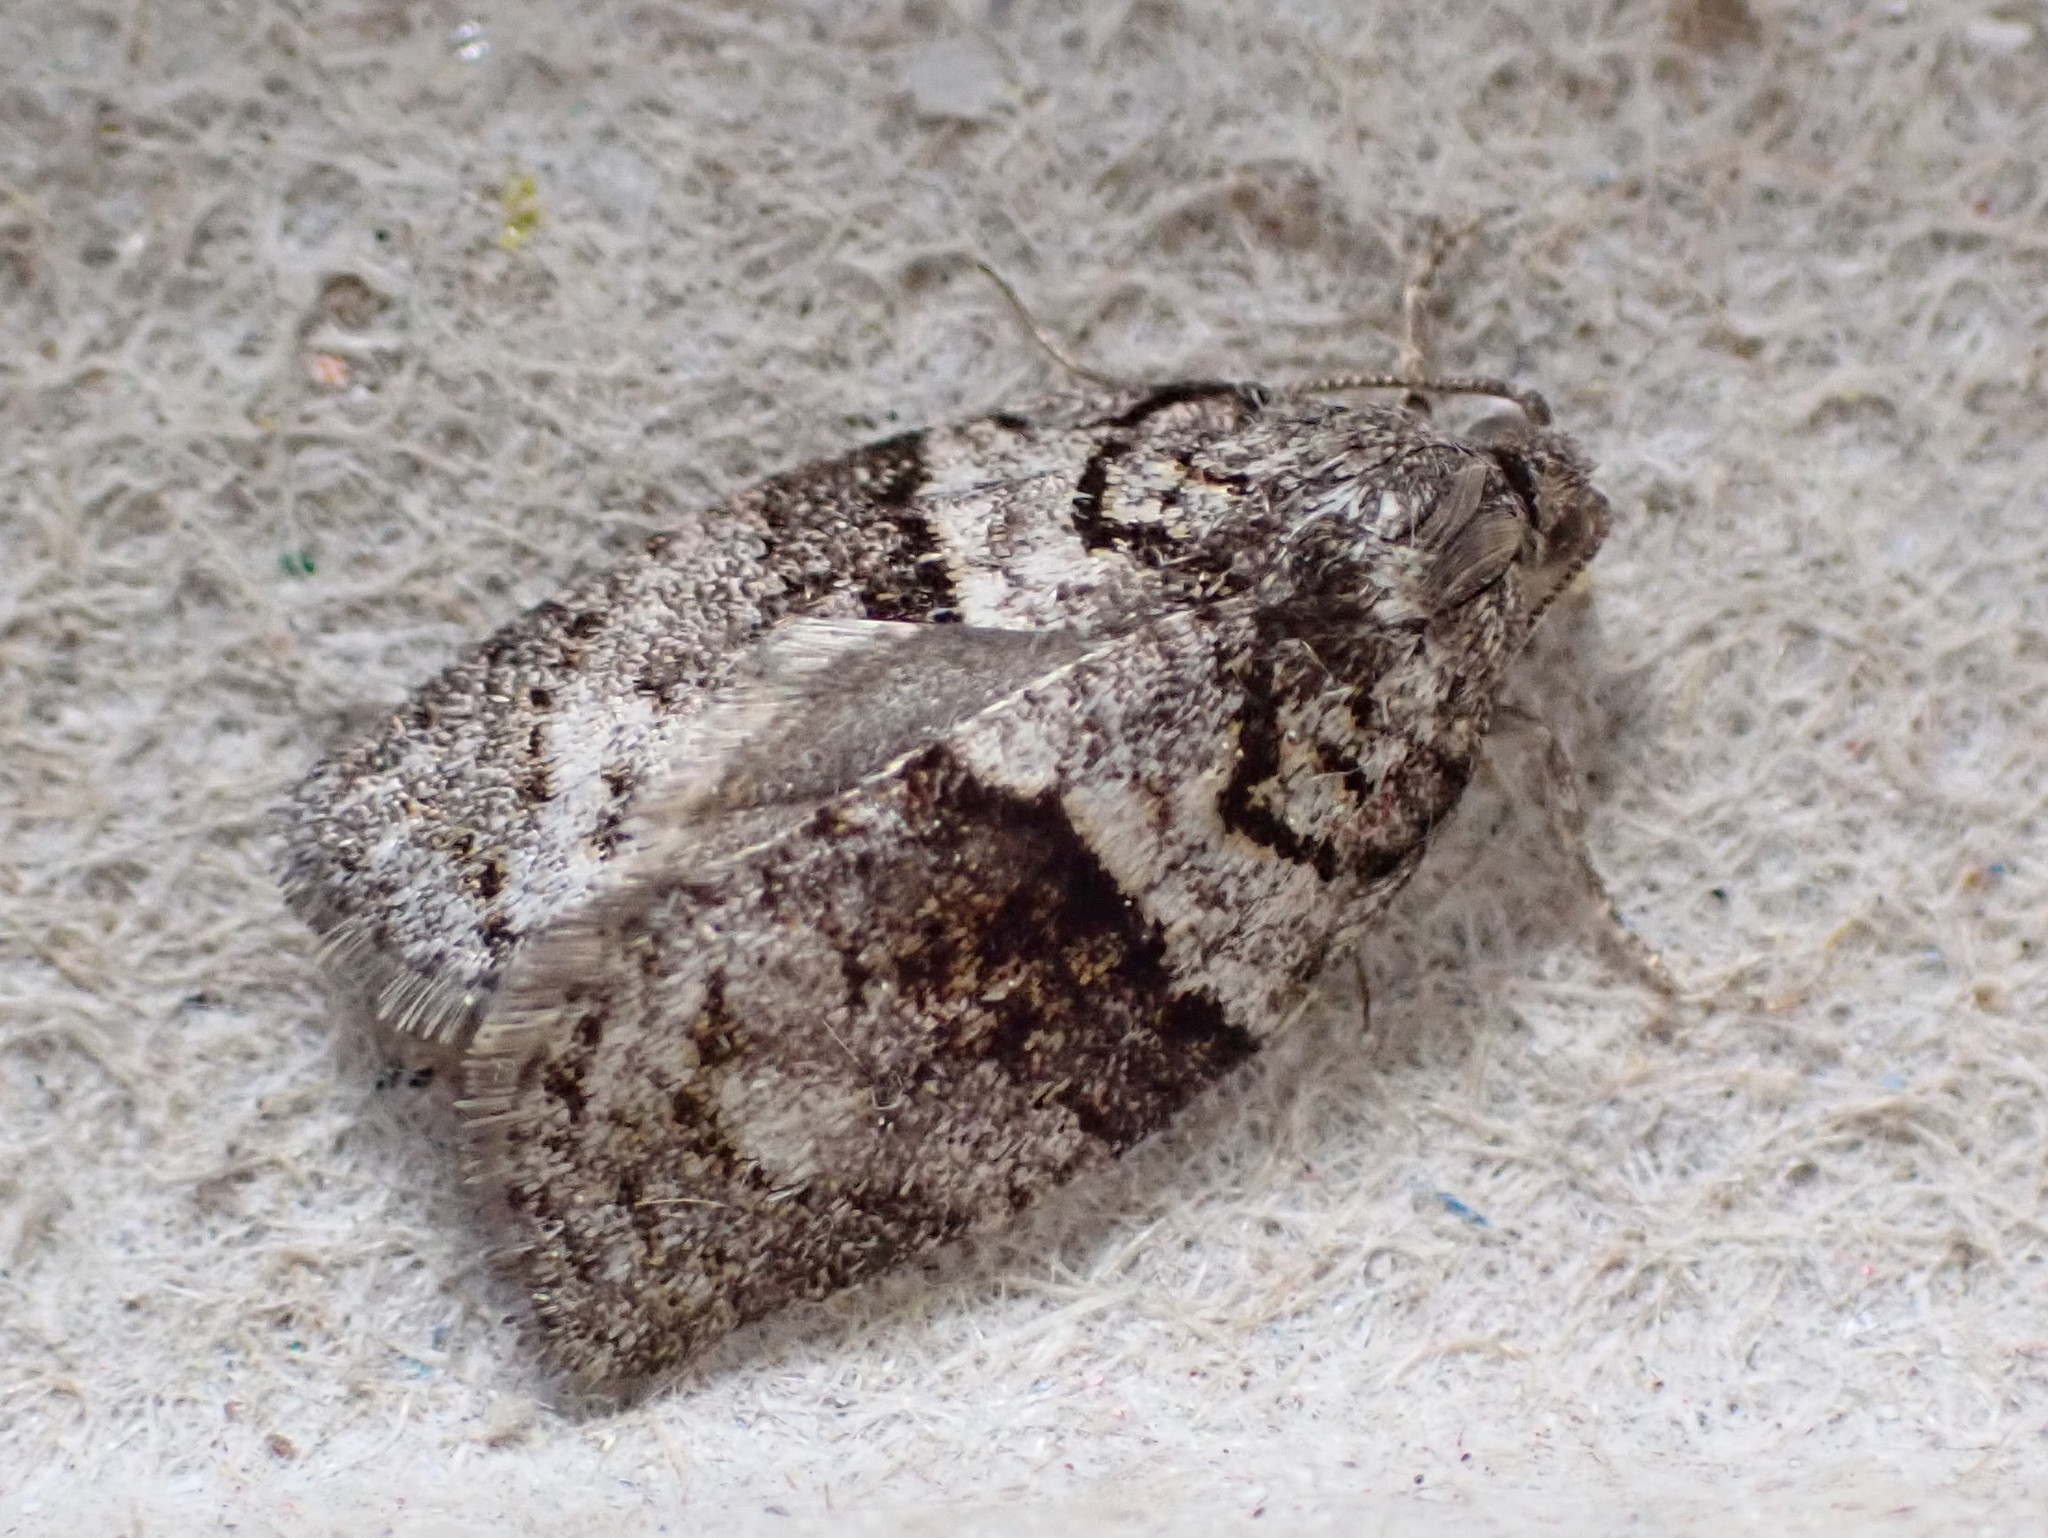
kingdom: Animalia
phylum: Arthropoda
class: Insecta
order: Lepidoptera
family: Tortricidae
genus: Syndemis
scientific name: Syndemis afflictana
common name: Gray leafroller moth
